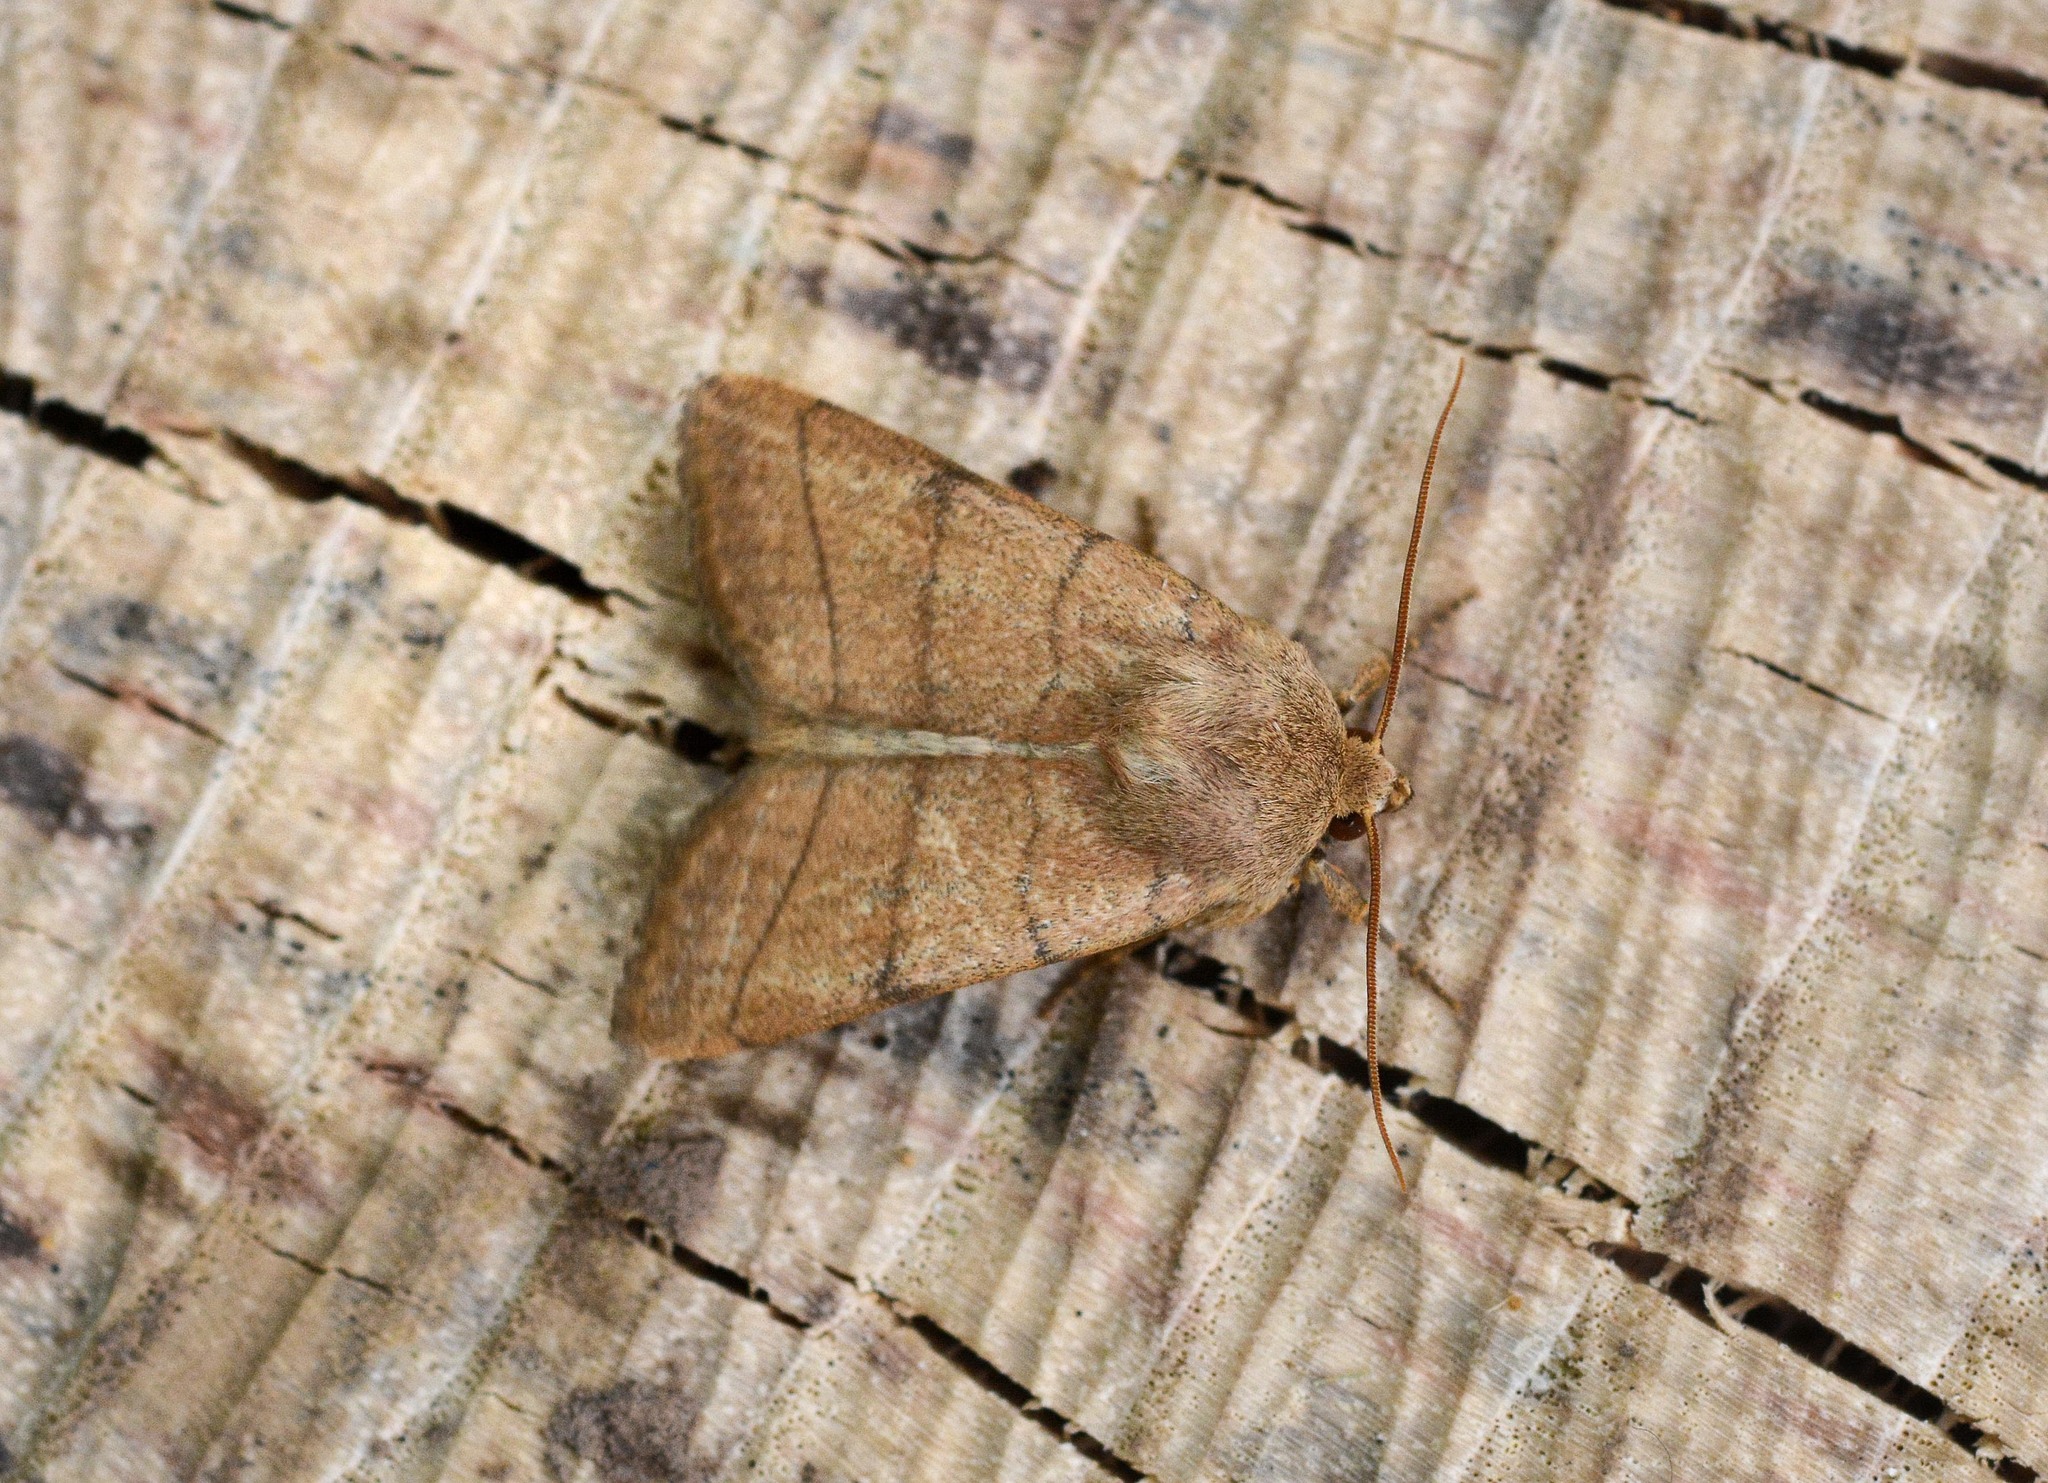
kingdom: Animalia
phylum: Arthropoda
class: Insecta
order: Lepidoptera
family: Noctuidae
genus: Charanyca
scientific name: Charanyca trigrammica
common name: Treble lines
